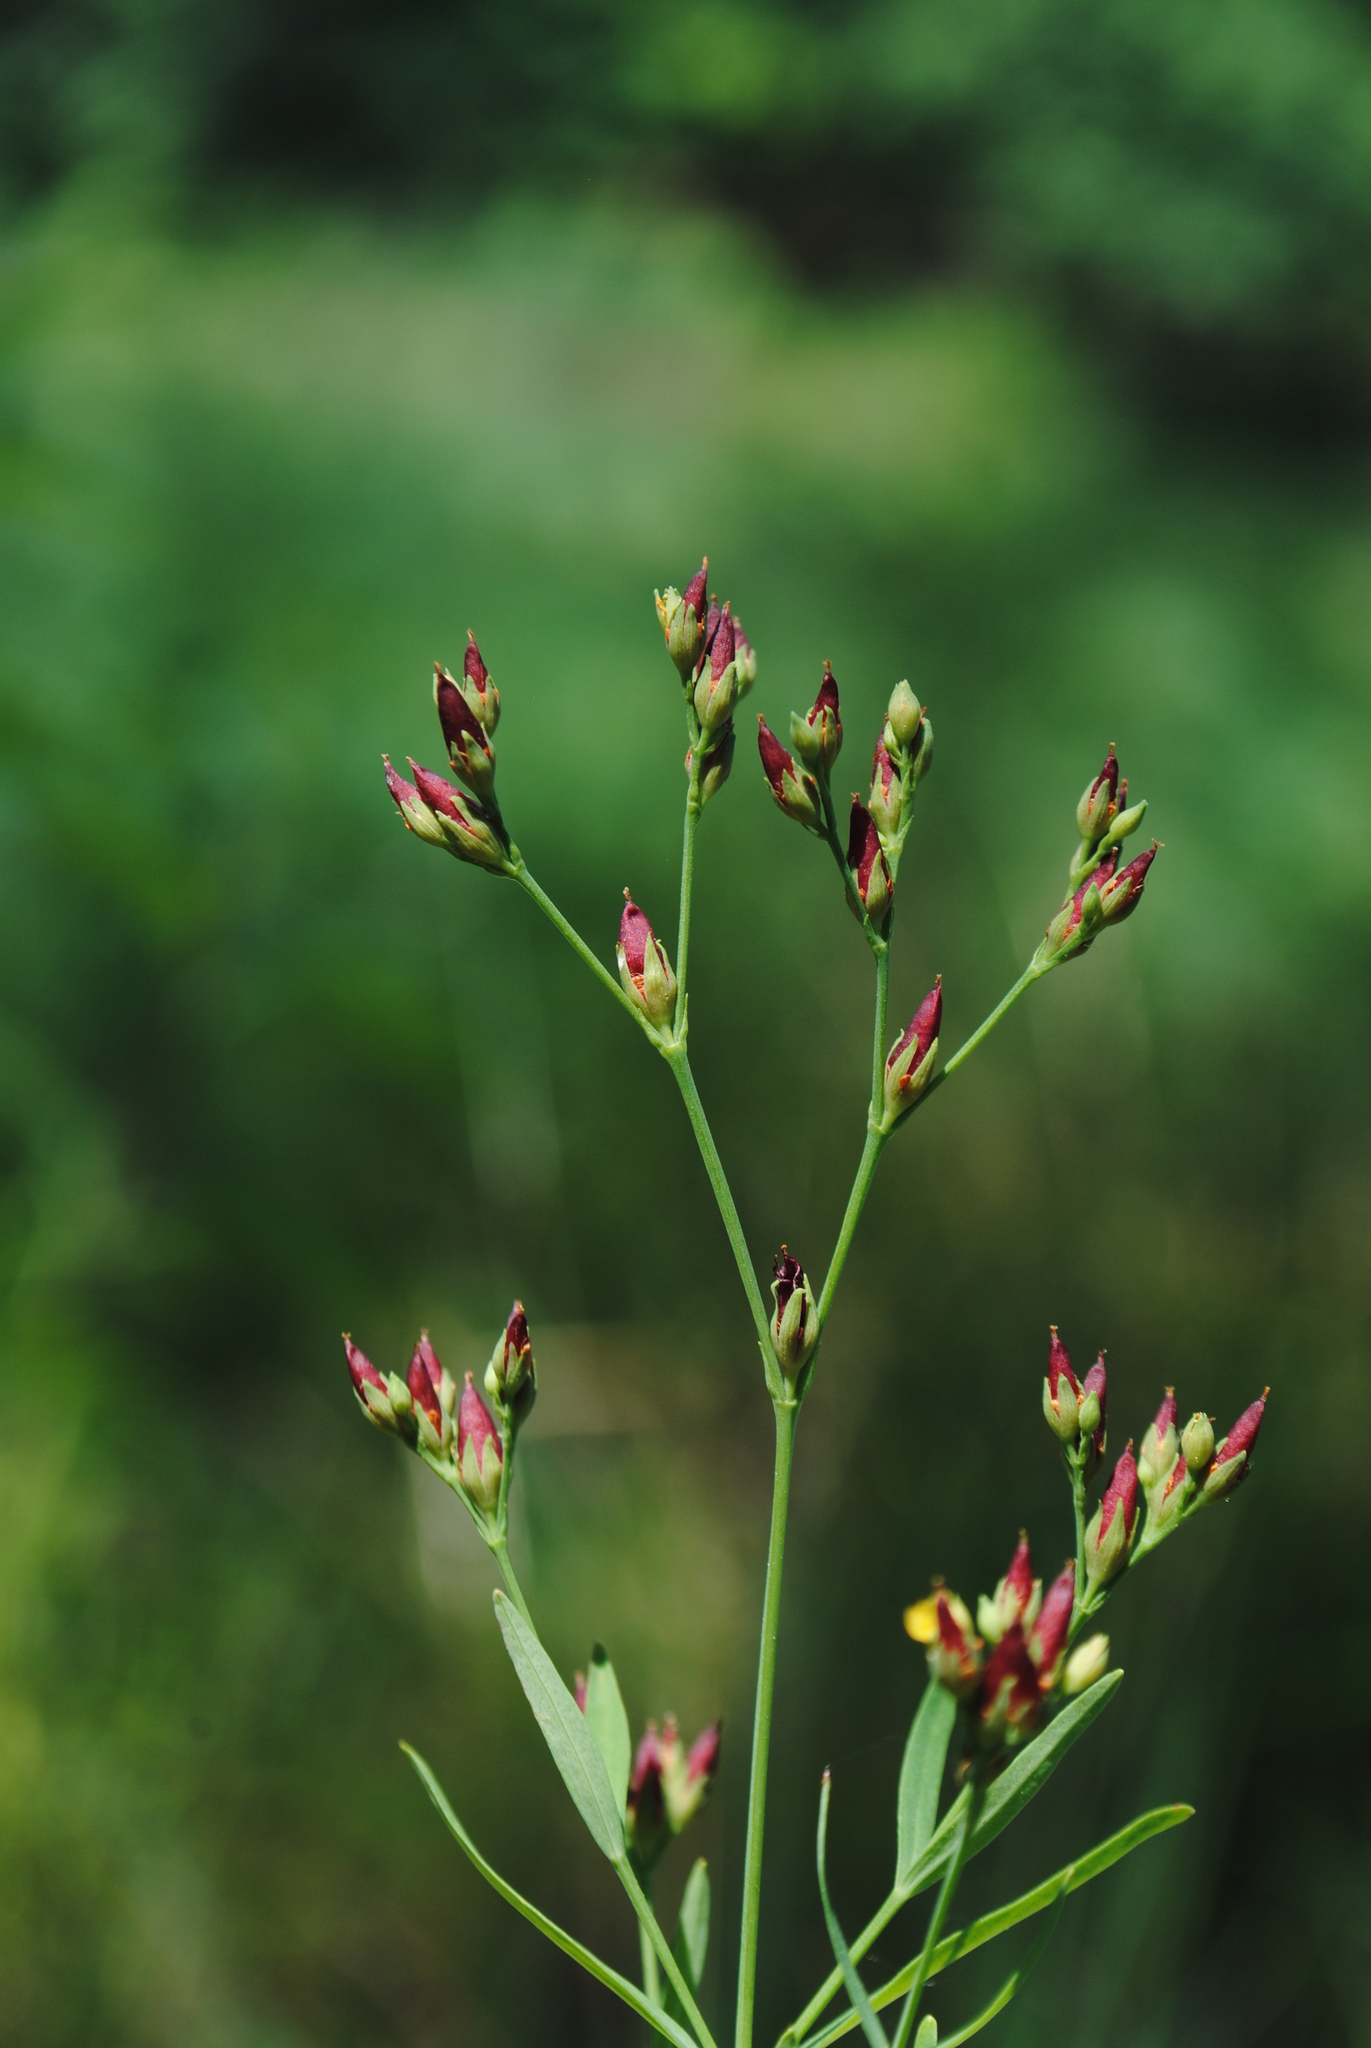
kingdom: Plantae
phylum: Tracheophyta
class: Magnoliopsida
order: Malpighiales
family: Hypericaceae
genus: Hypericum
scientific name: Hypericum canadense
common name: Irish st. john's-wort
